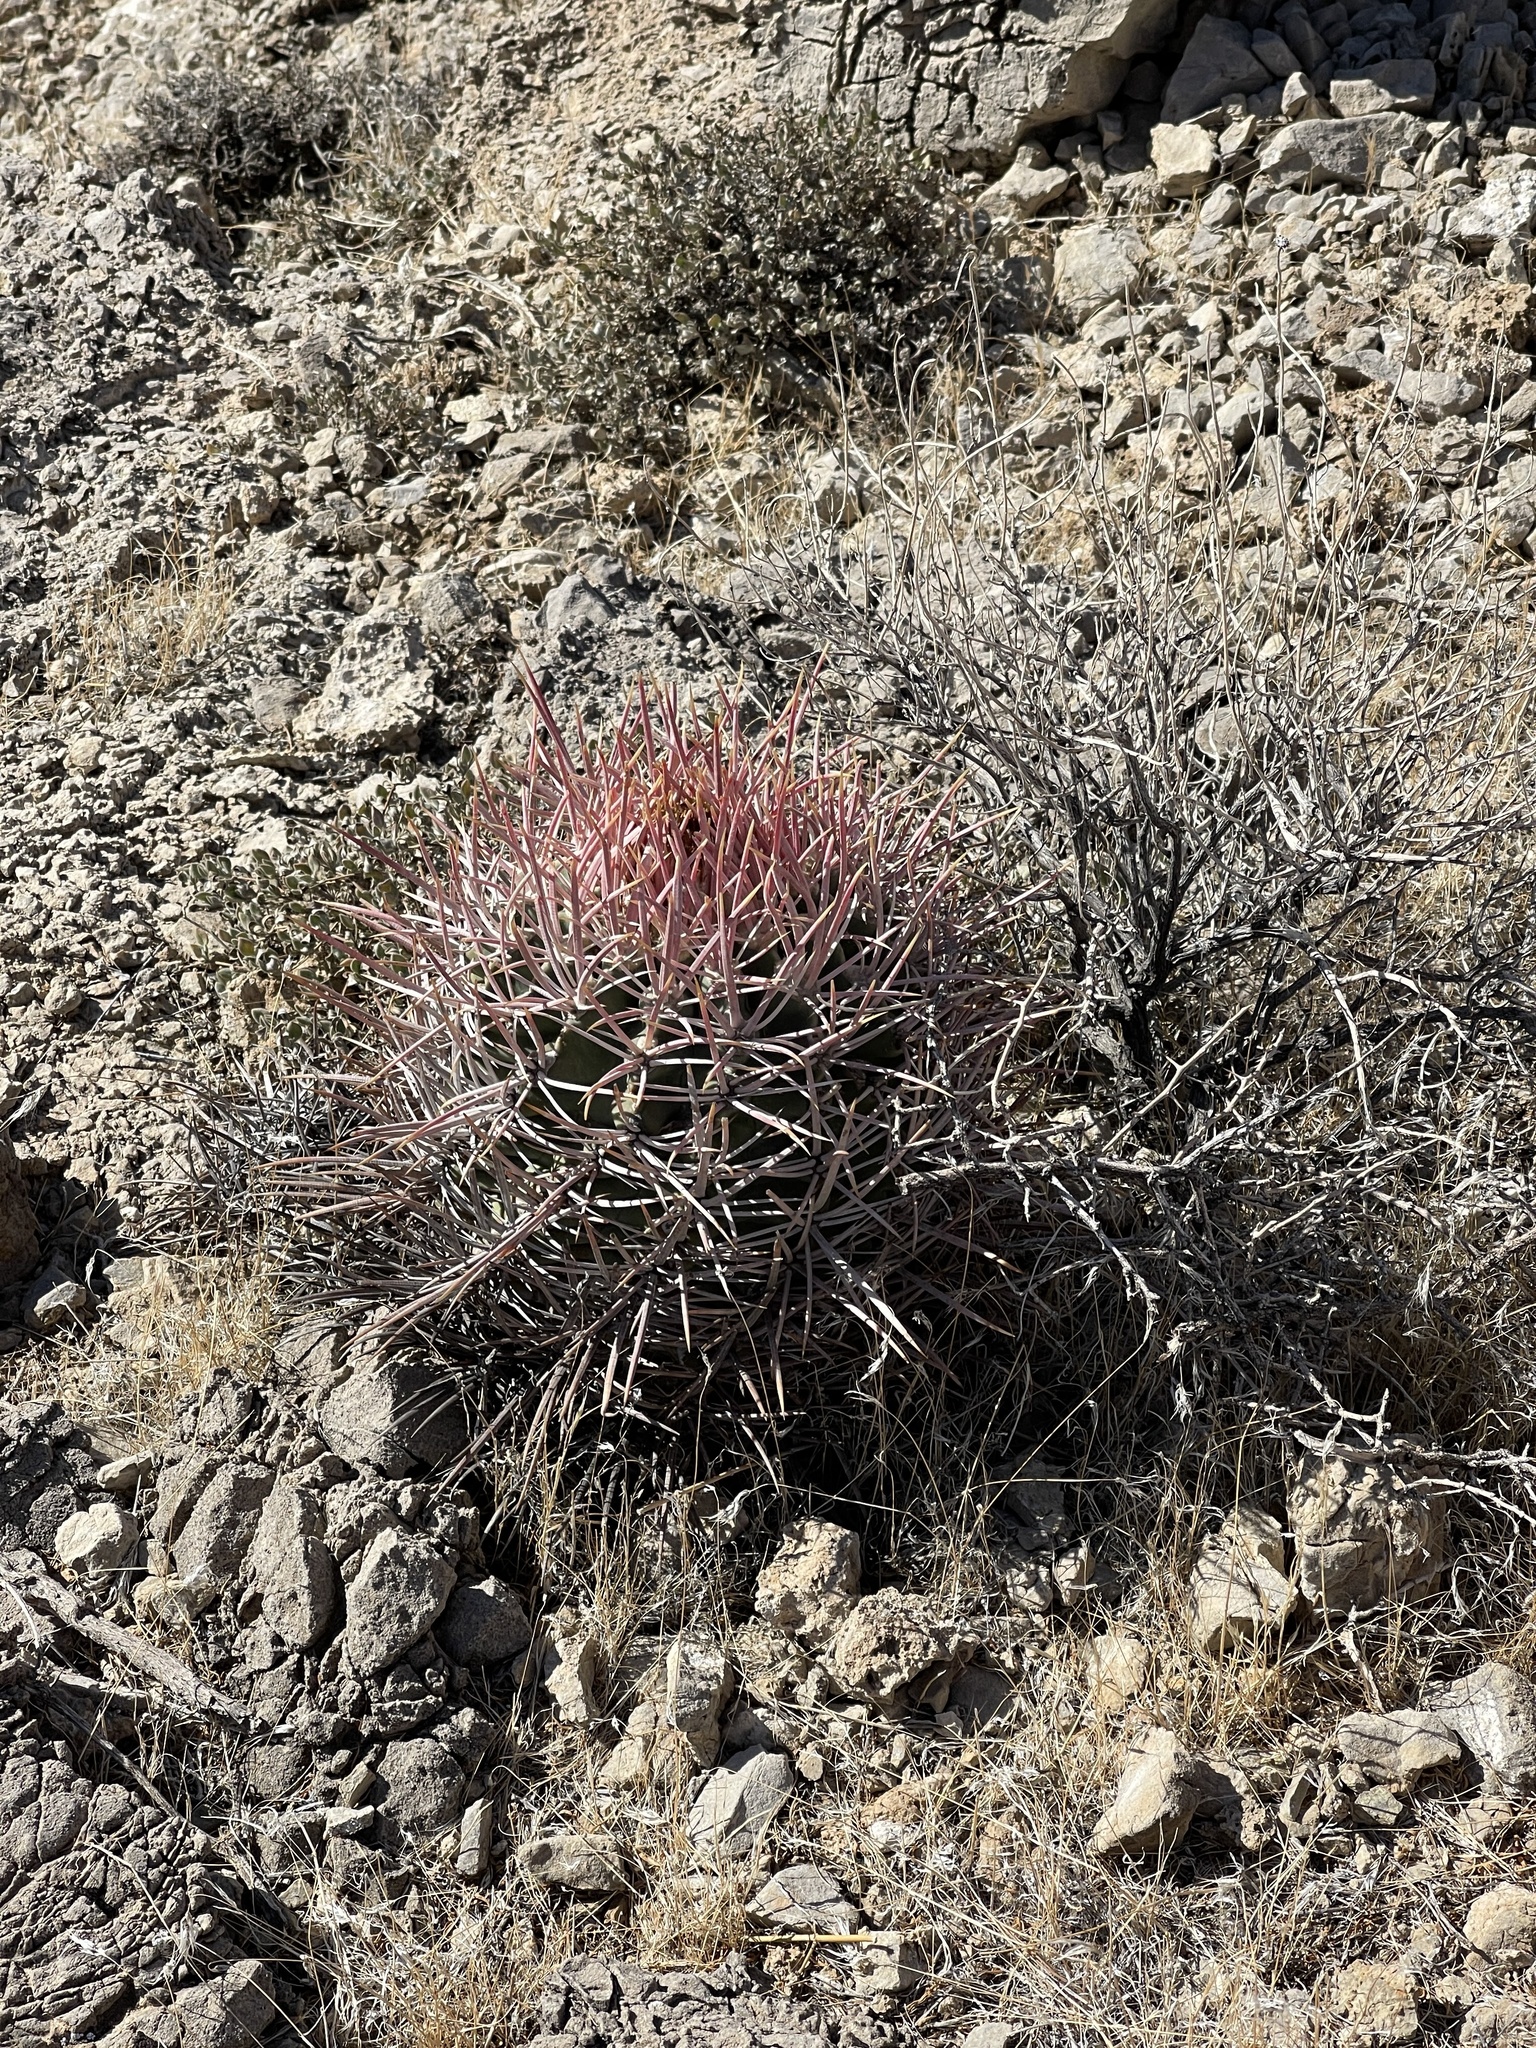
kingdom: Plantae
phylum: Tracheophyta
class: Magnoliopsida
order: Caryophyllales
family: Cactaceae
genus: Echinocactus
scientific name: Echinocactus polycephalus
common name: Cottontop cactus
